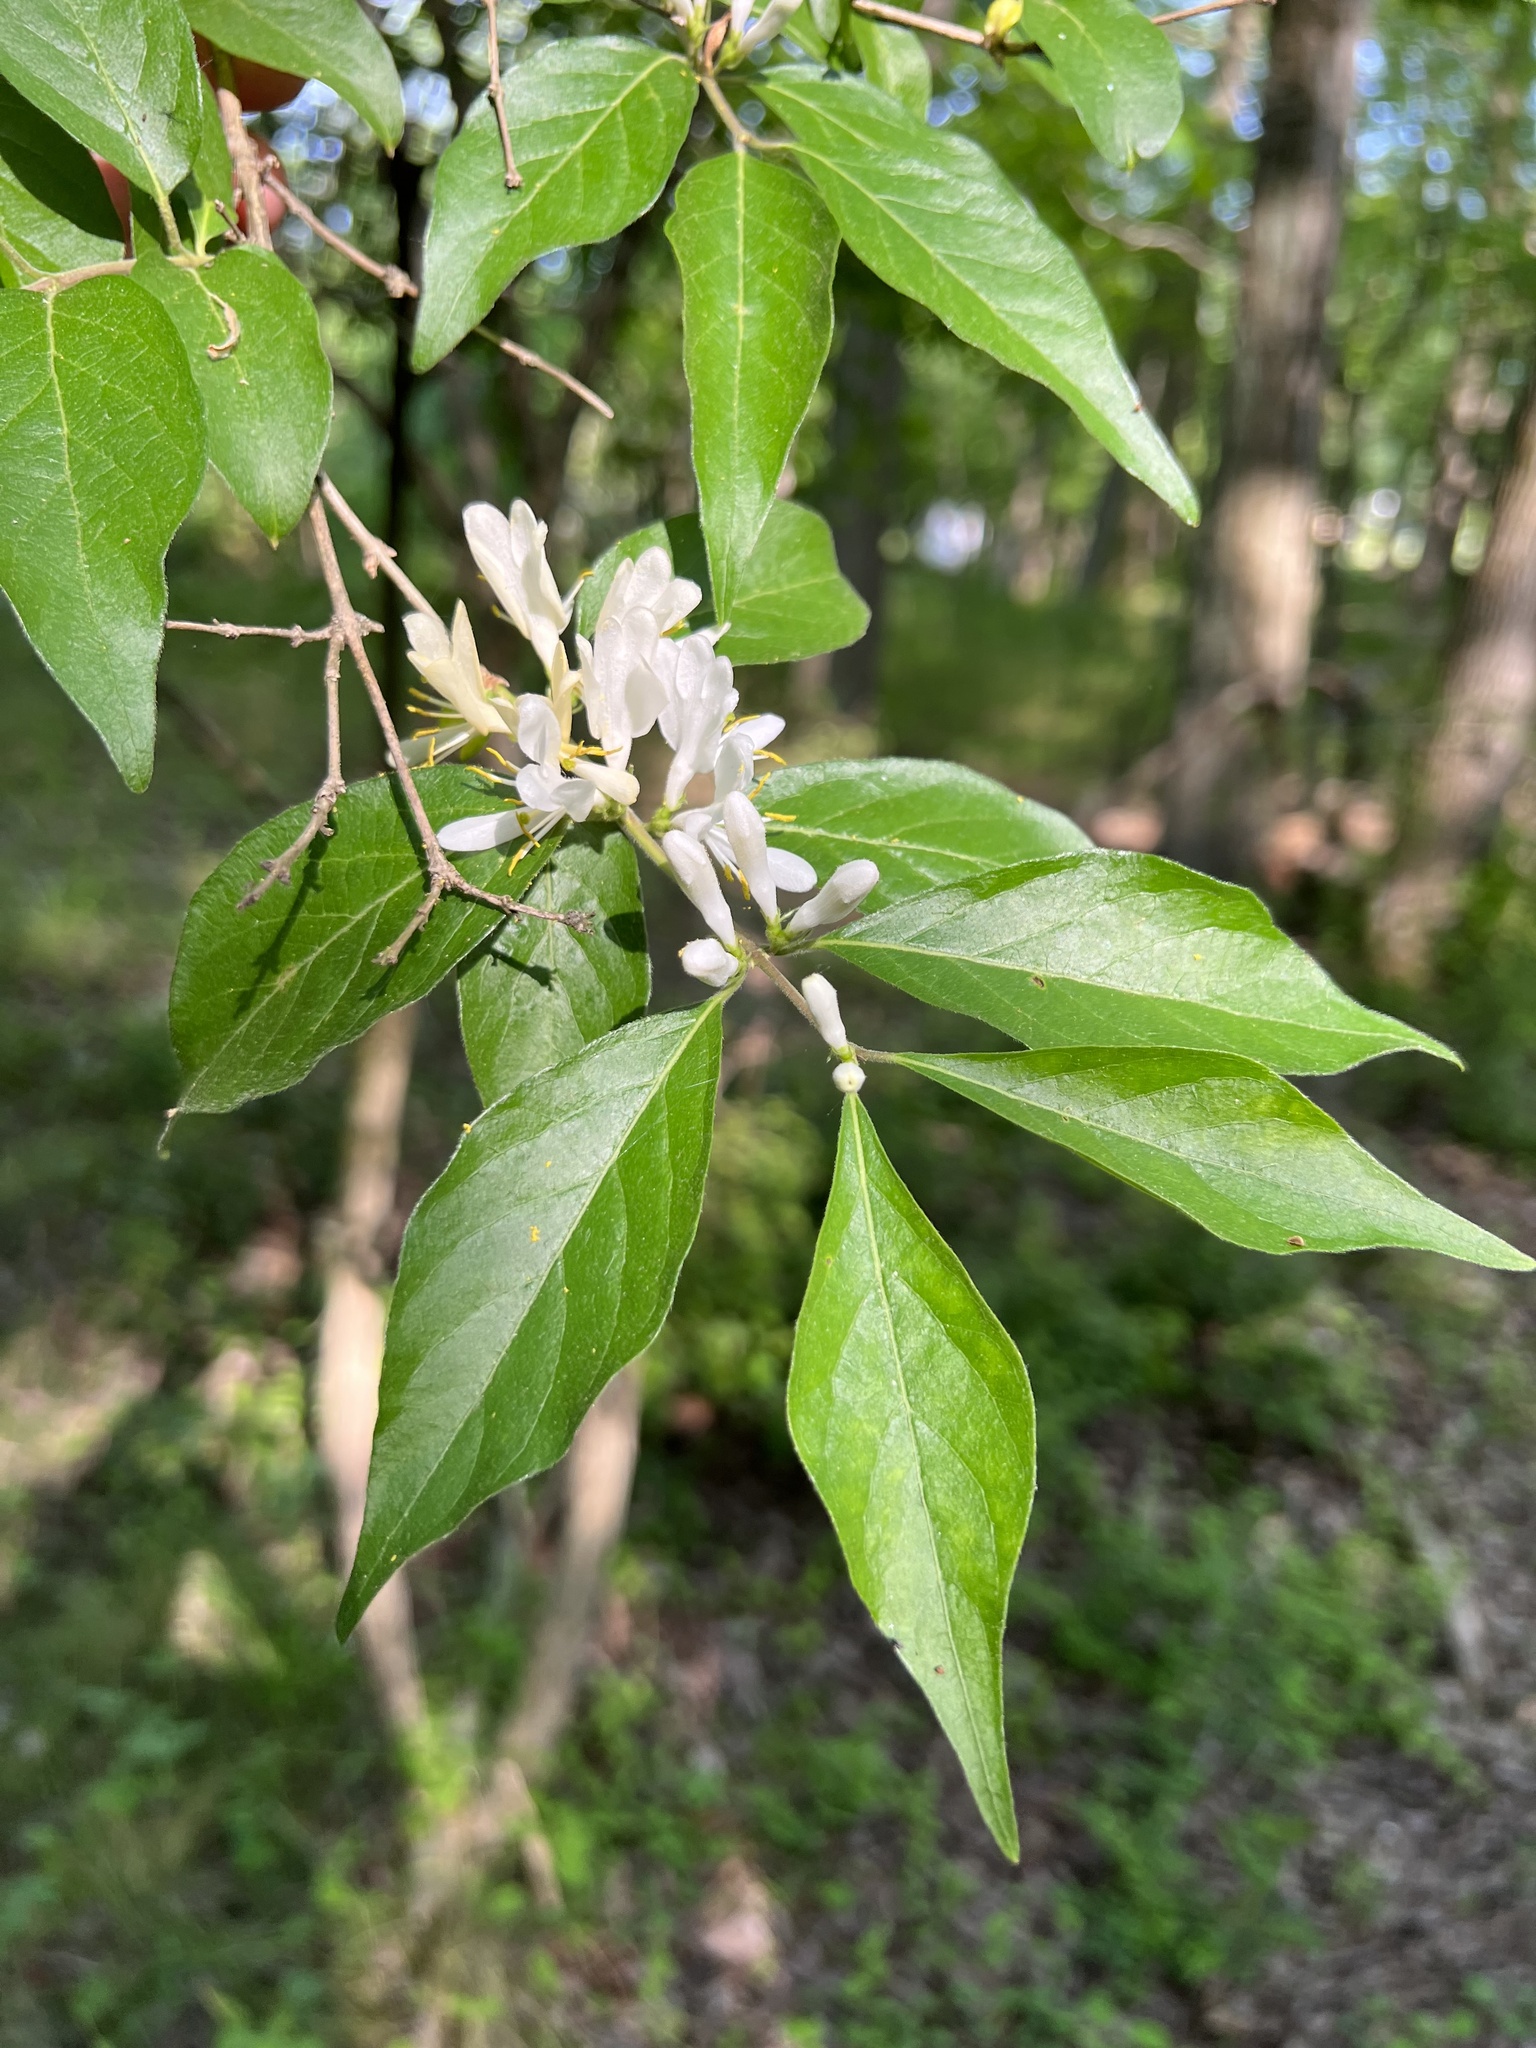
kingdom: Plantae
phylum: Tracheophyta
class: Magnoliopsida
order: Dipsacales
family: Caprifoliaceae
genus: Lonicera
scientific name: Lonicera maackii
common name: Amur honeysuckle
